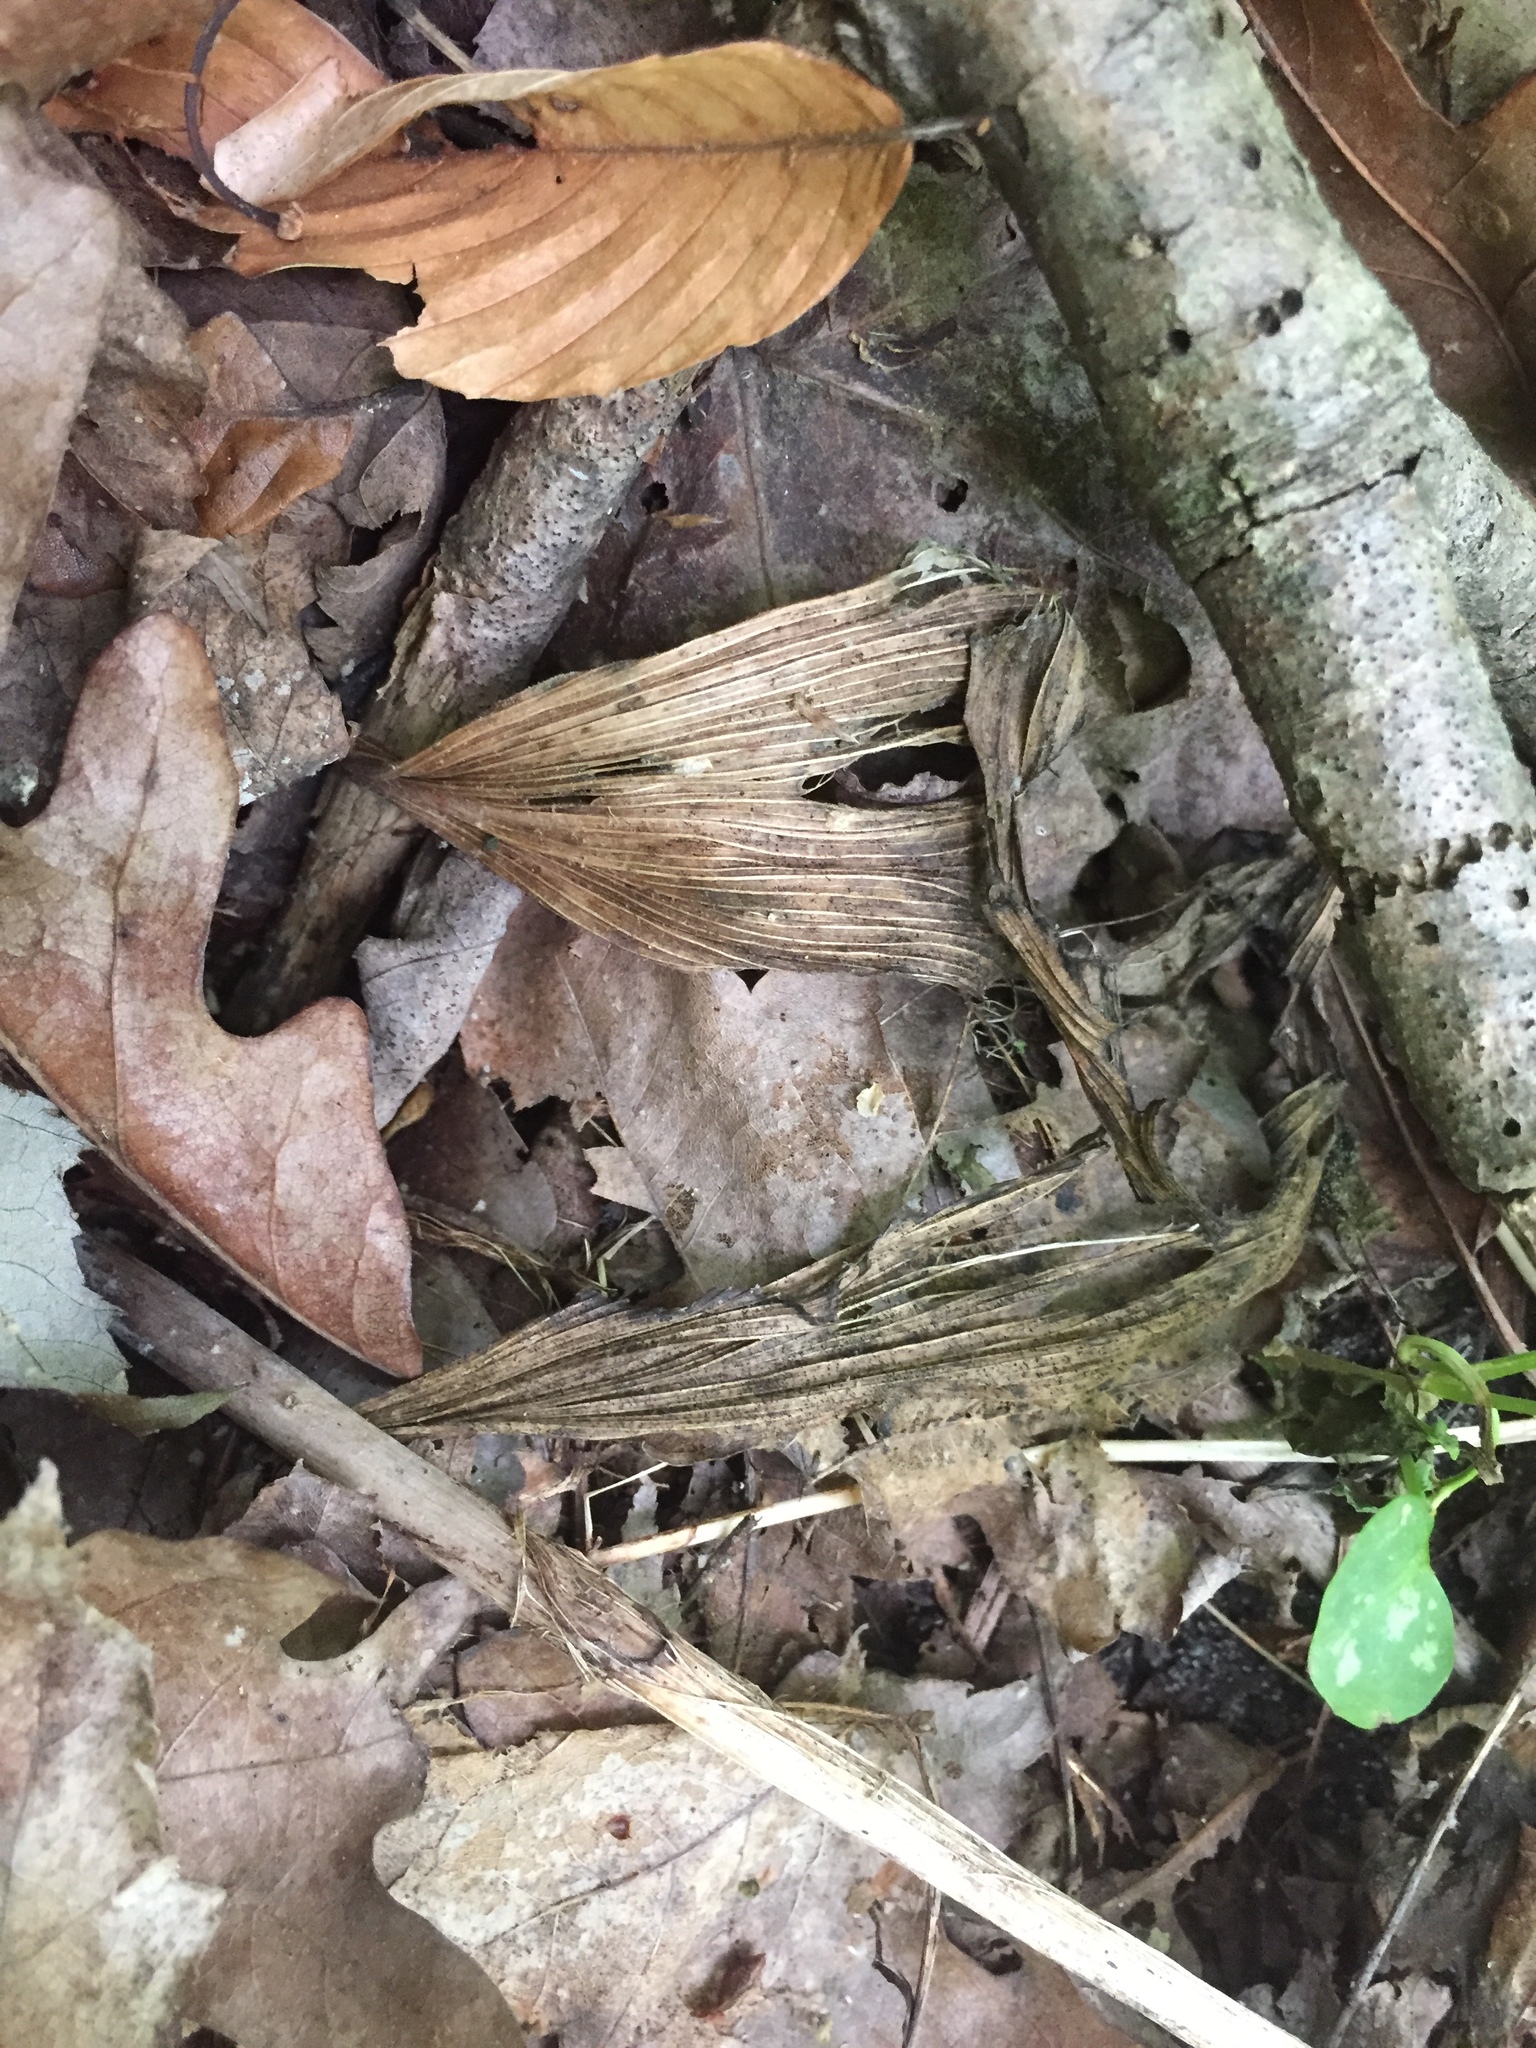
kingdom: Plantae
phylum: Tracheophyta
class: Liliopsida
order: Asparagales
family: Orchidaceae
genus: Aplectrum
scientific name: Aplectrum hyemale
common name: Adam-and-eve
